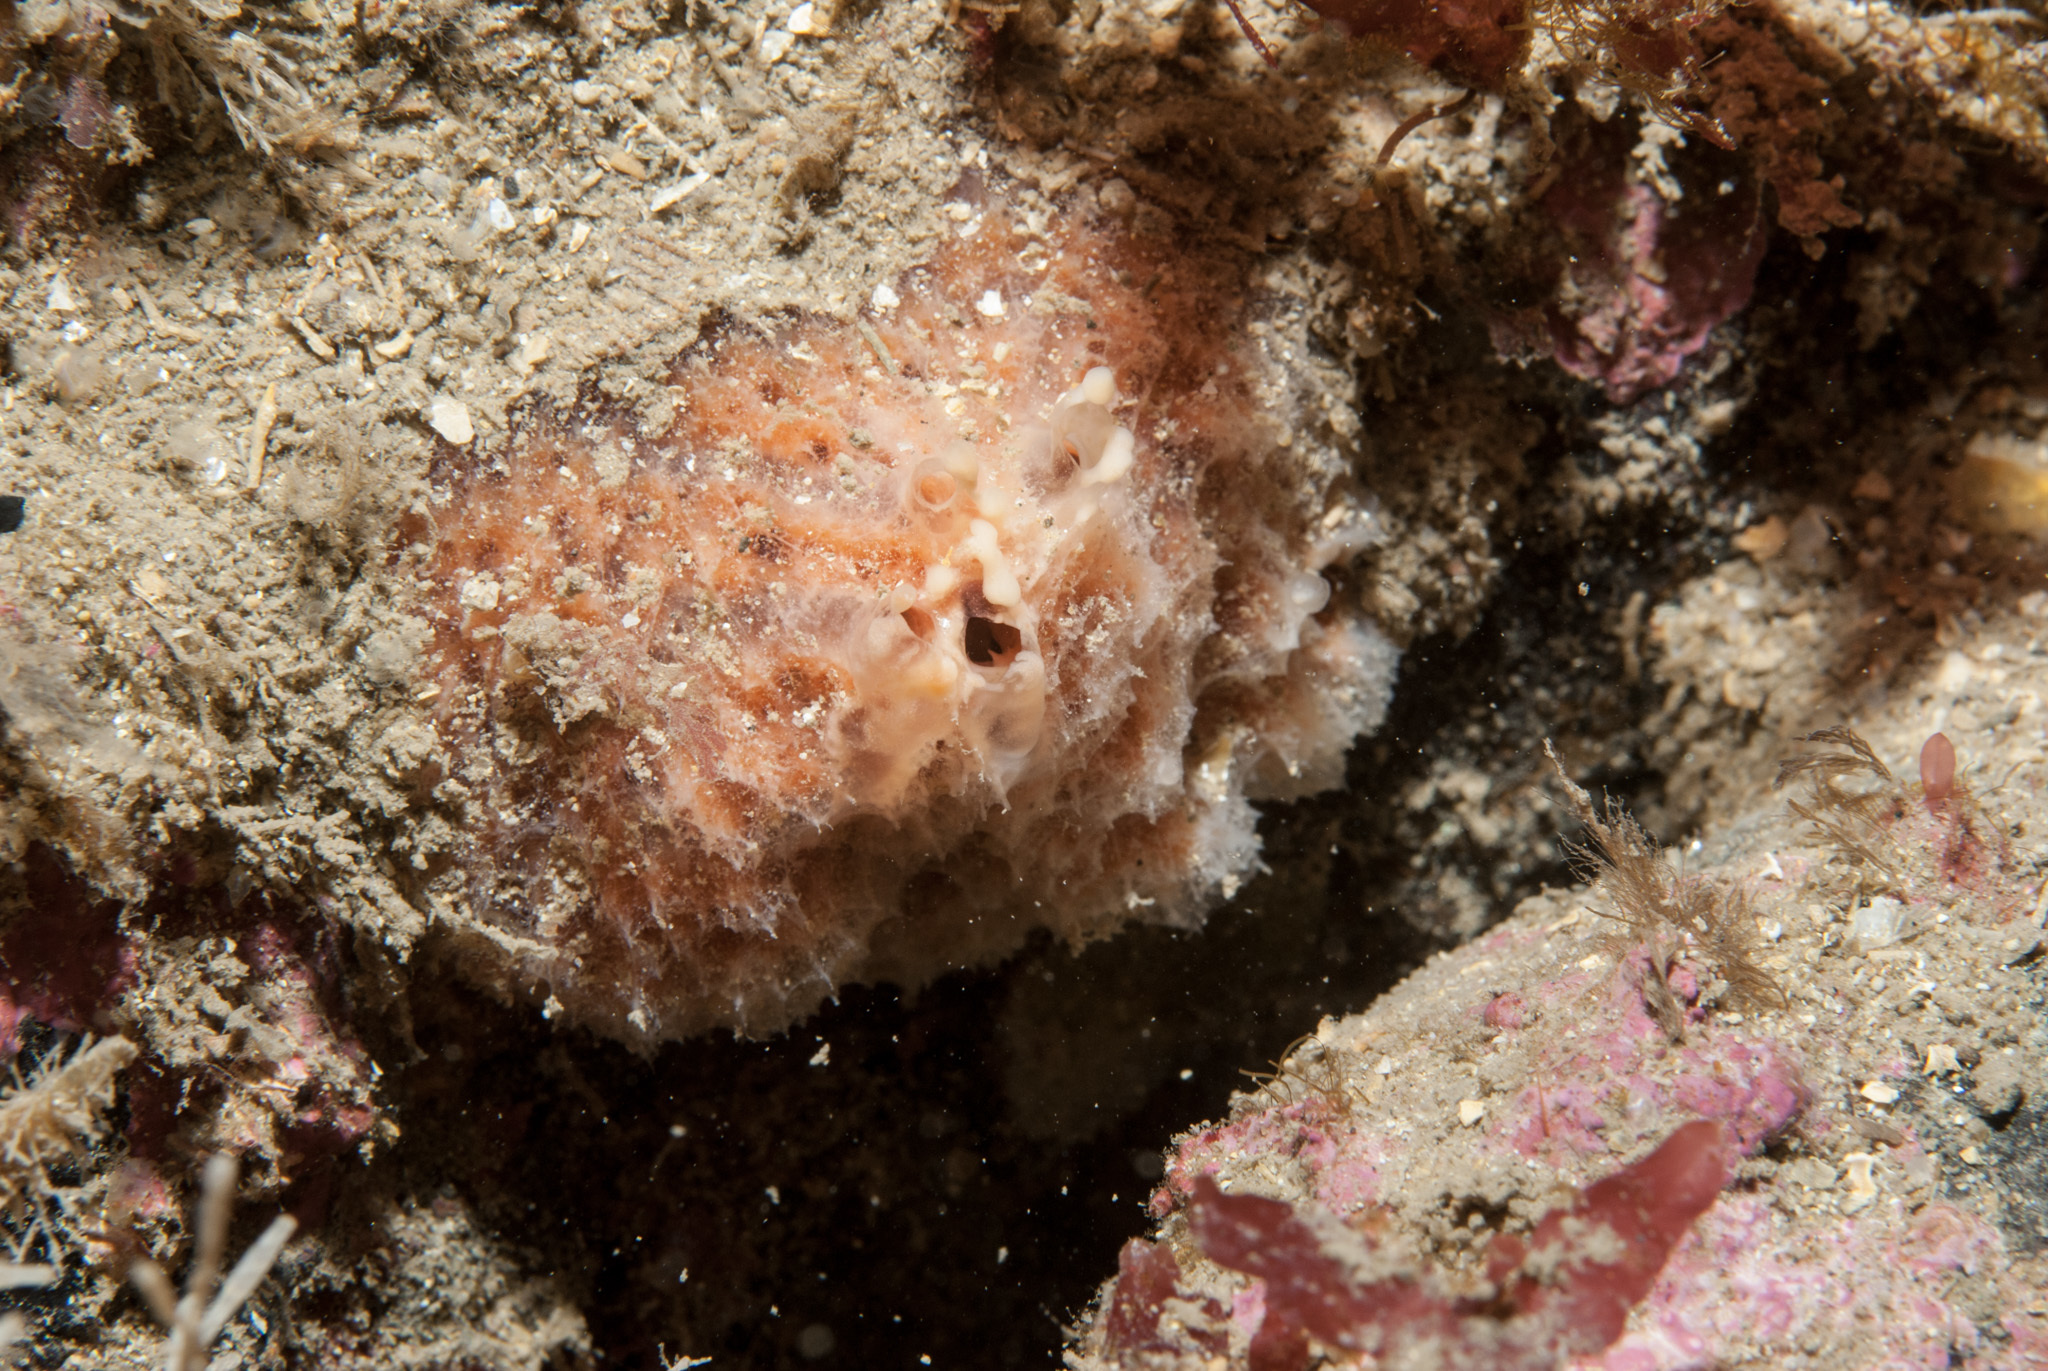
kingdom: Animalia
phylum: Porifera
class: Demospongiae
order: Bubarida
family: Dictyonellidae
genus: Tethyspira
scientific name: Tethyspira spinosa
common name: Pork scratching sponge
